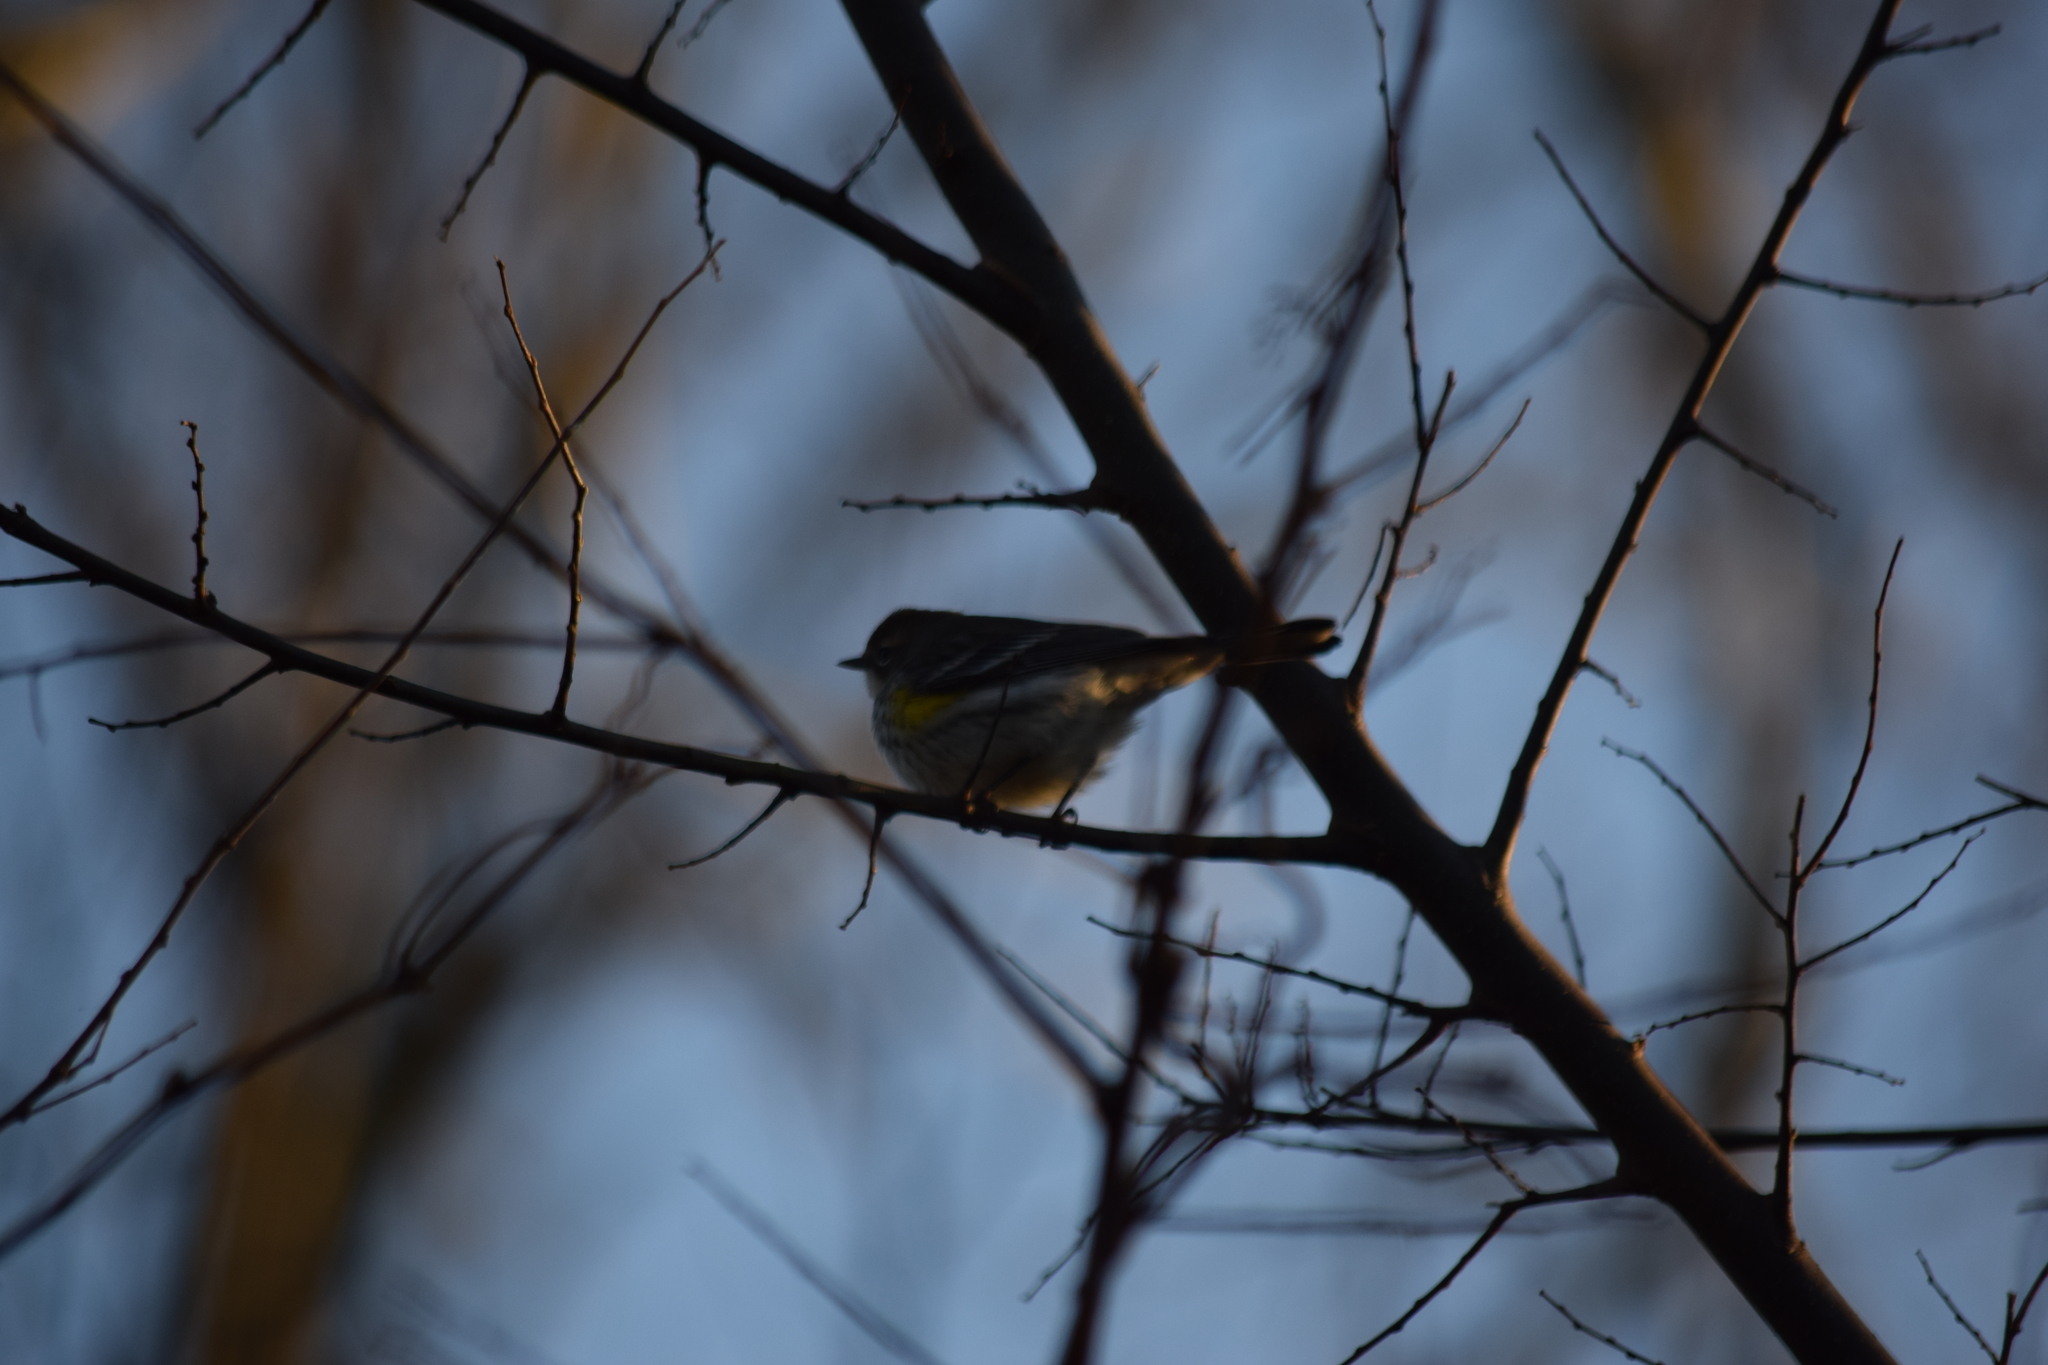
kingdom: Animalia
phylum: Chordata
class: Aves
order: Passeriformes
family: Parulidae
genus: Setophaga
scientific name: Setophaga coronata
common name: Myrtle warbler
